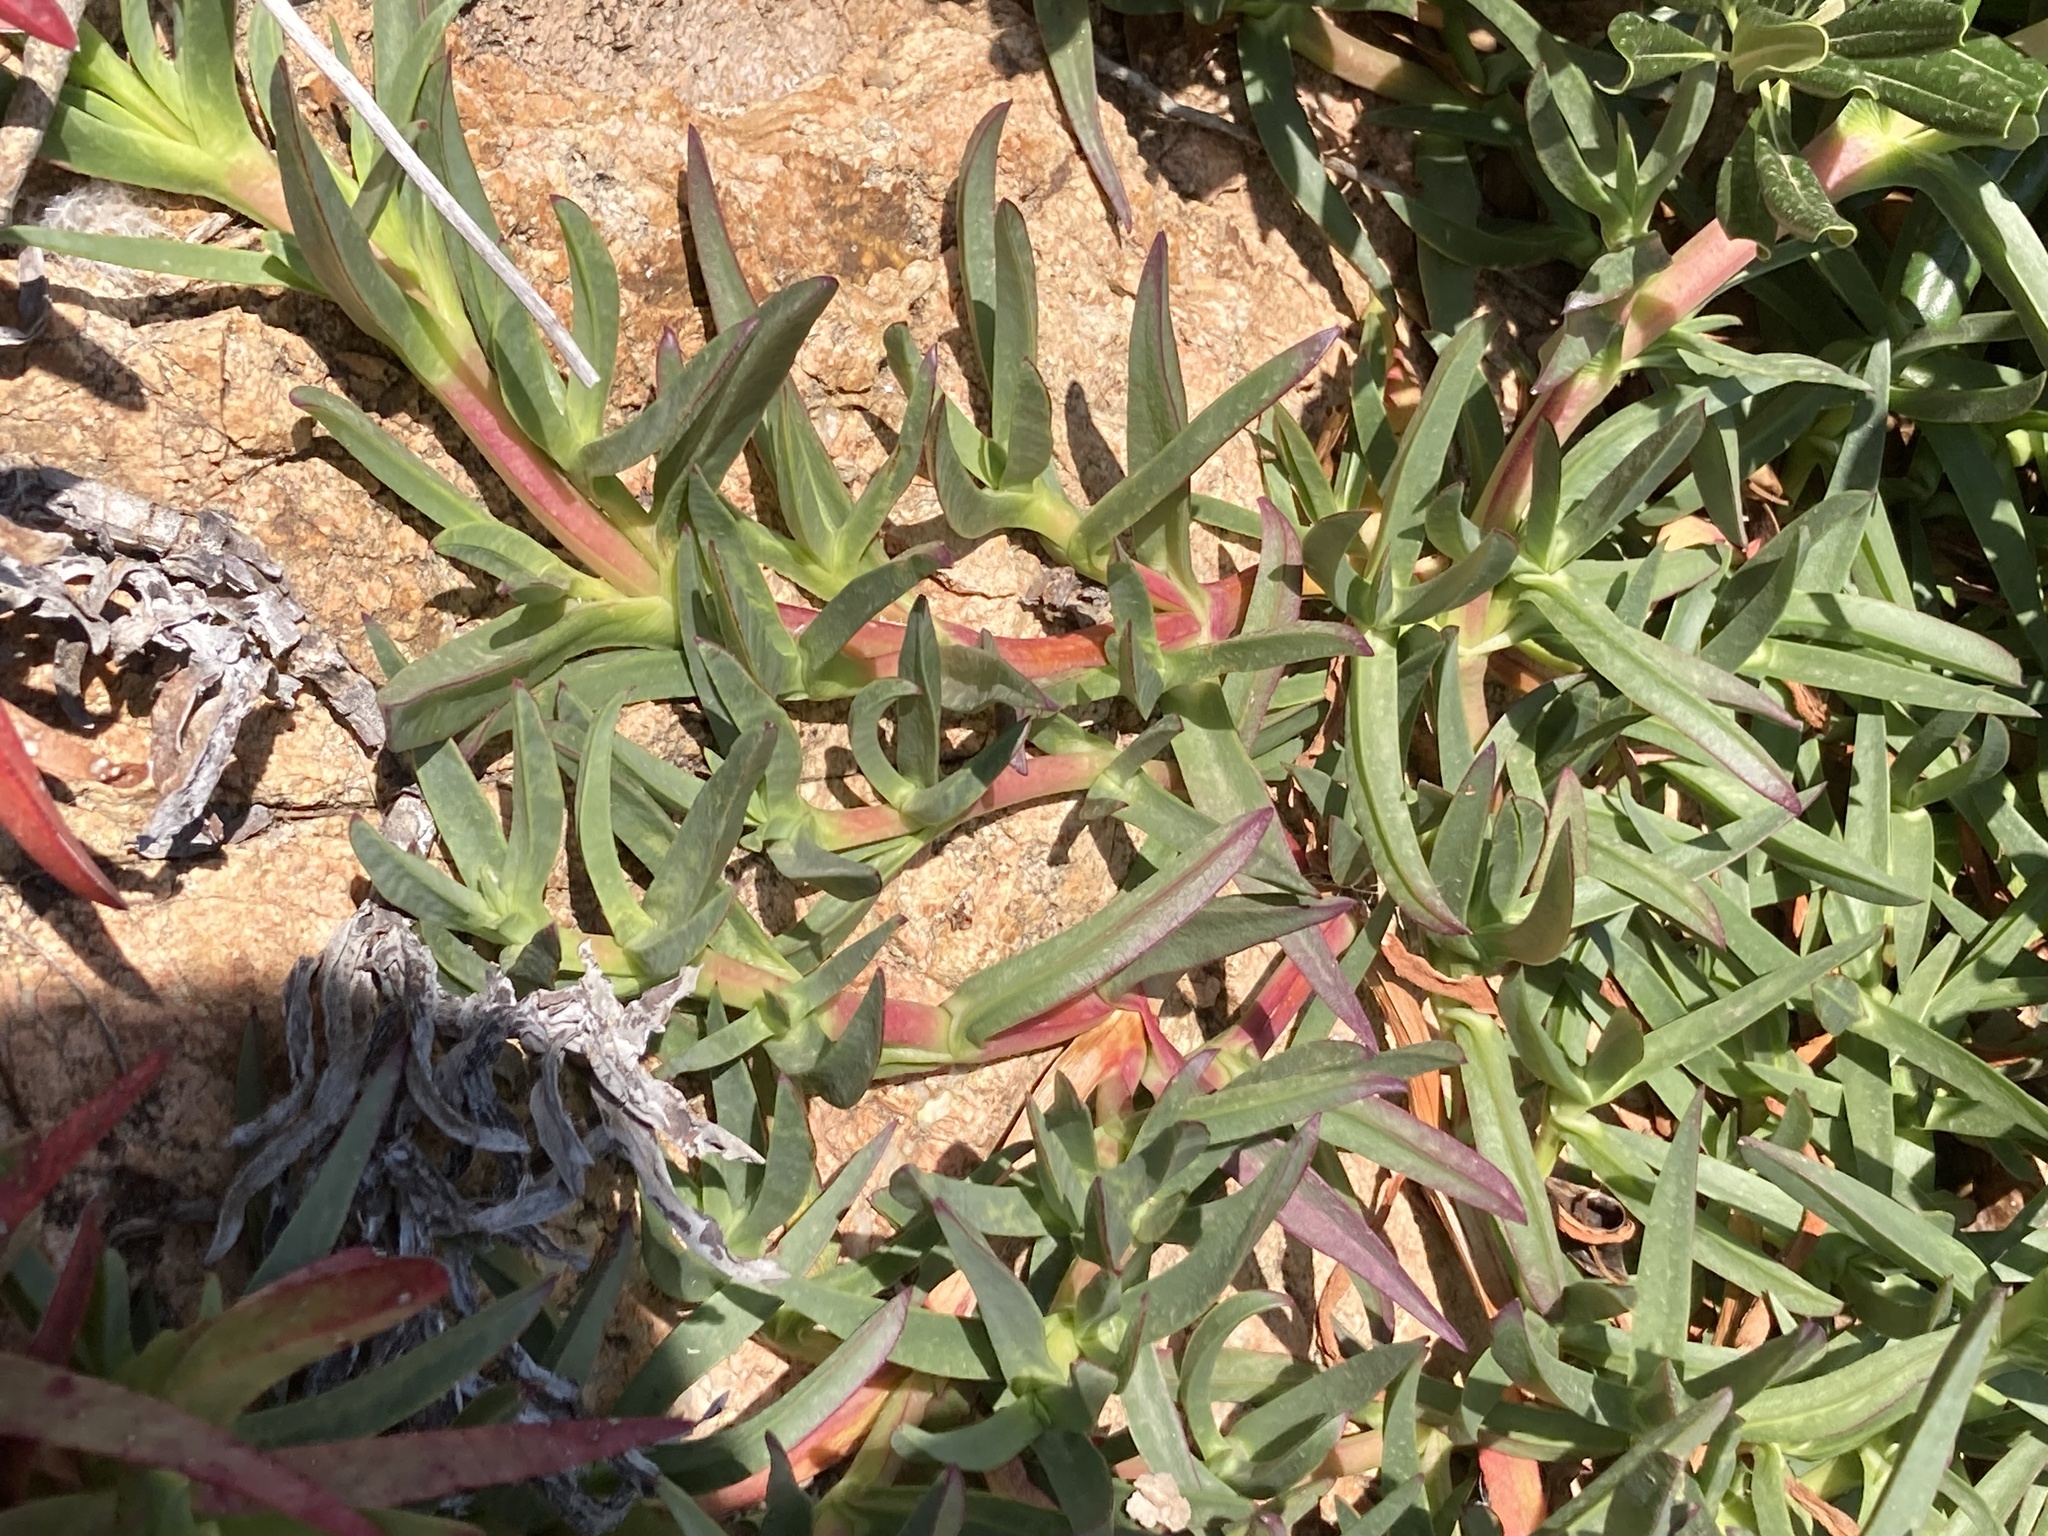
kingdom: Plantae
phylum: Tracheophyta
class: Magnoliopsida
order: Caryophyllales
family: Aizoaceae
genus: Carpobrotus
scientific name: Carpobrotus acinaciformis
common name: Sally-my-handsome
